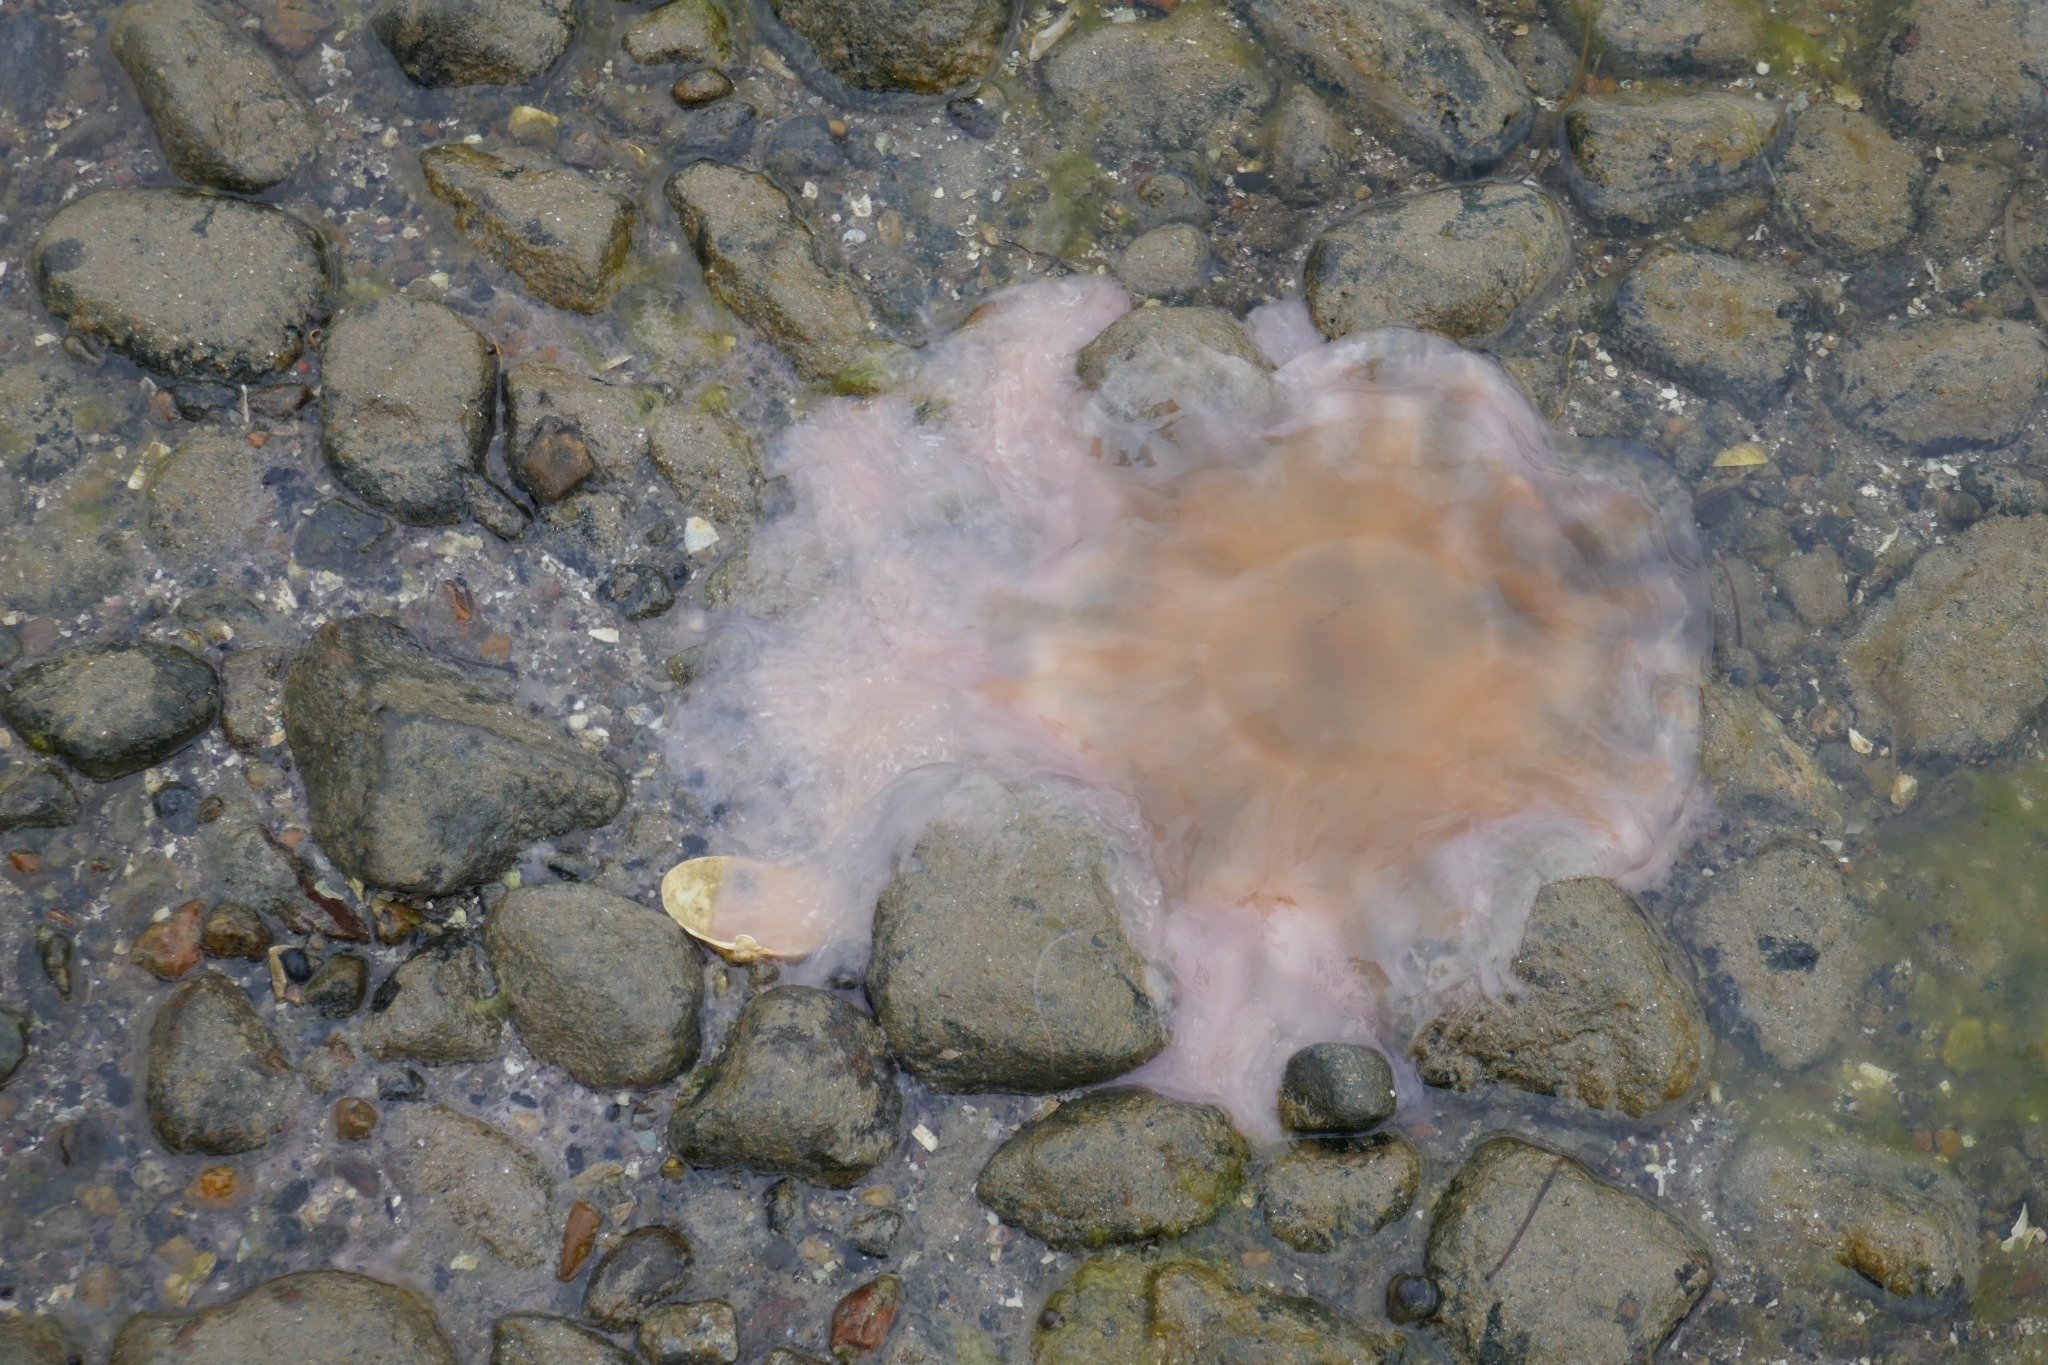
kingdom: Animalia
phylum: Cnidaria
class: Scyphozoa
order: Semaeostomeae
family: Cyaneidae
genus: Cyanea
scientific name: Cyanea capillata
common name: Lion's mane jellyfish
